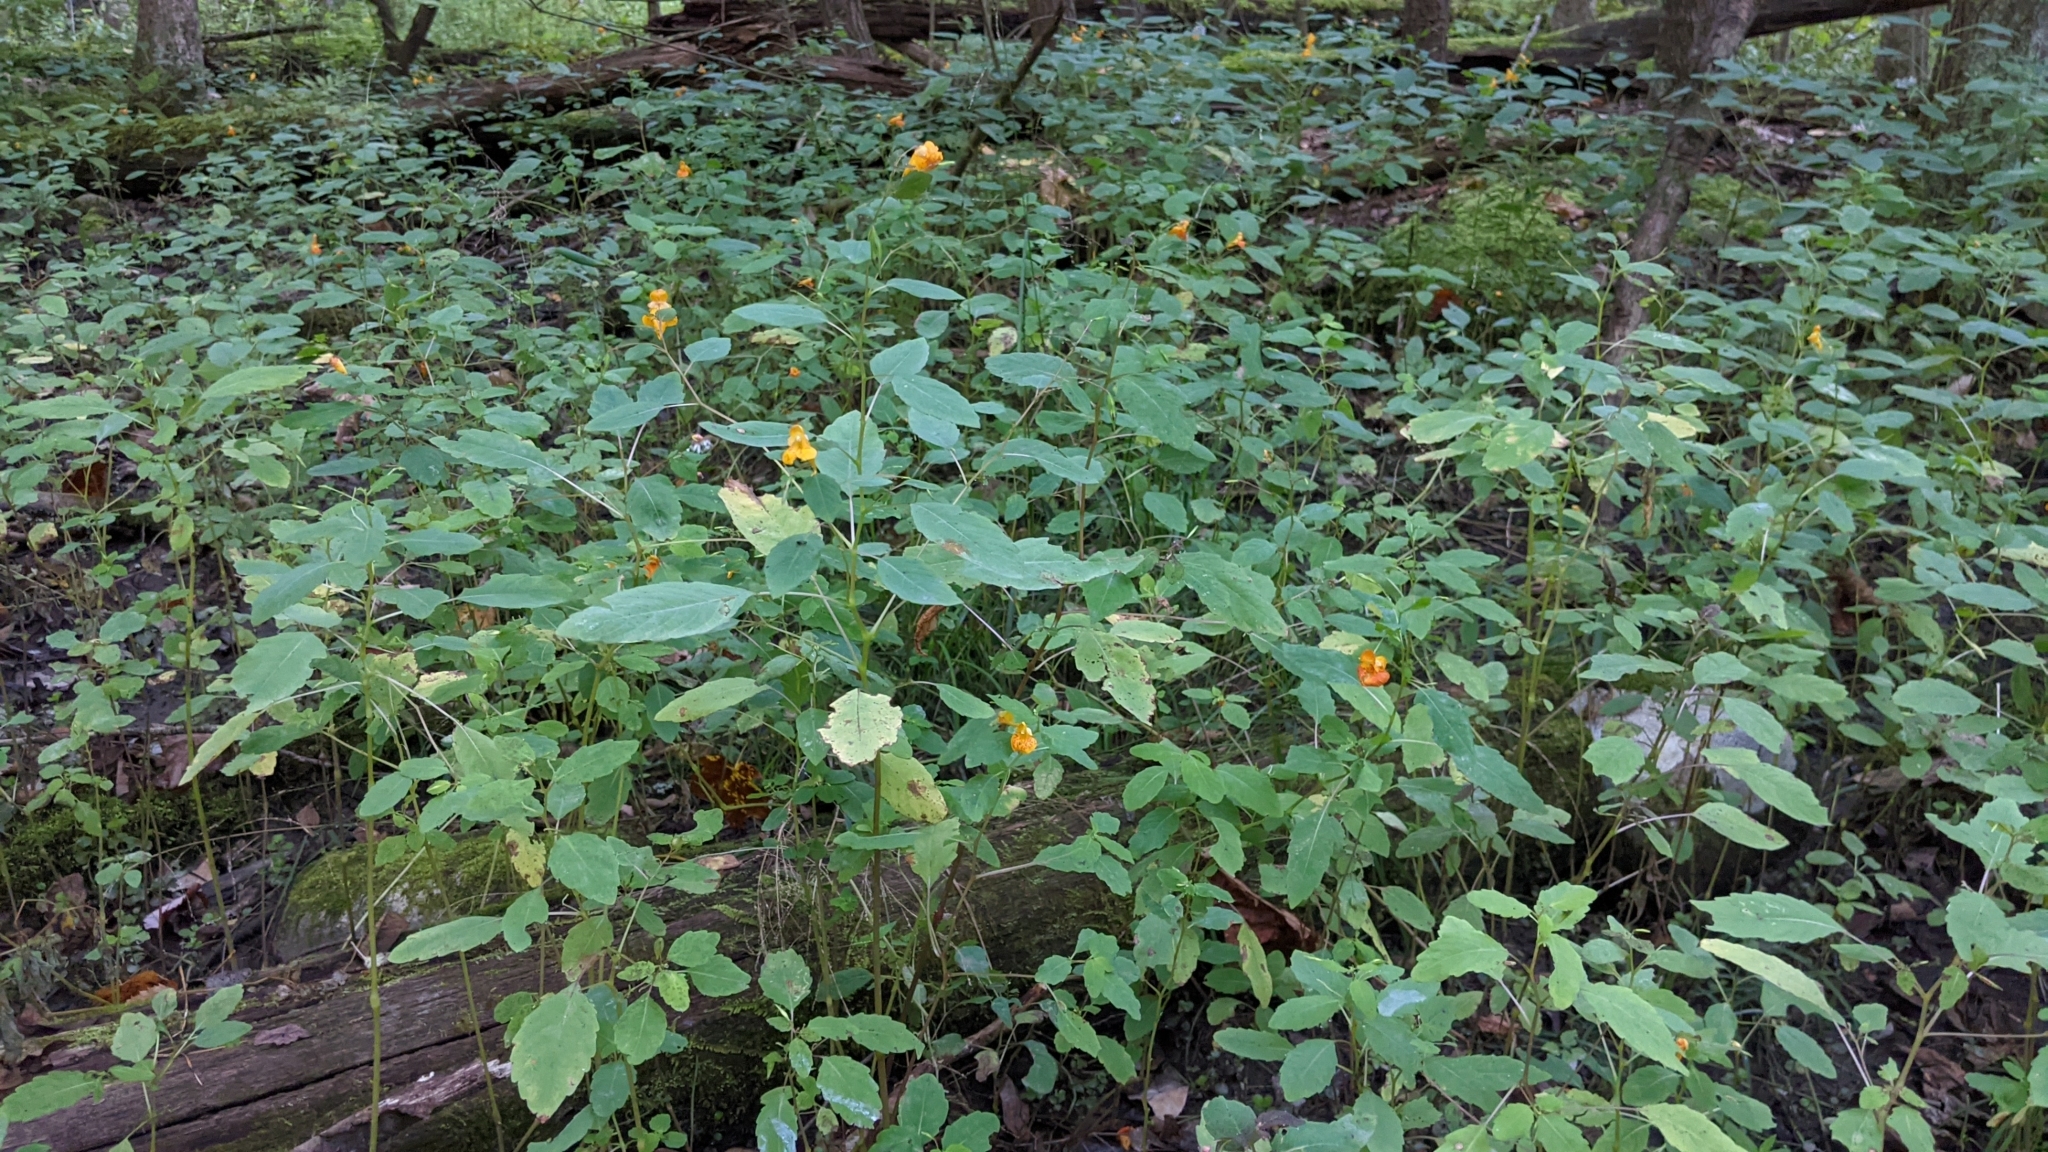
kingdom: Plantae
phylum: Tracheophyta
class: Magnoliopsida
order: Ericales
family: Balsaminaceae
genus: Impatiens
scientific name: Impatiens capensis
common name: Orange balsam
